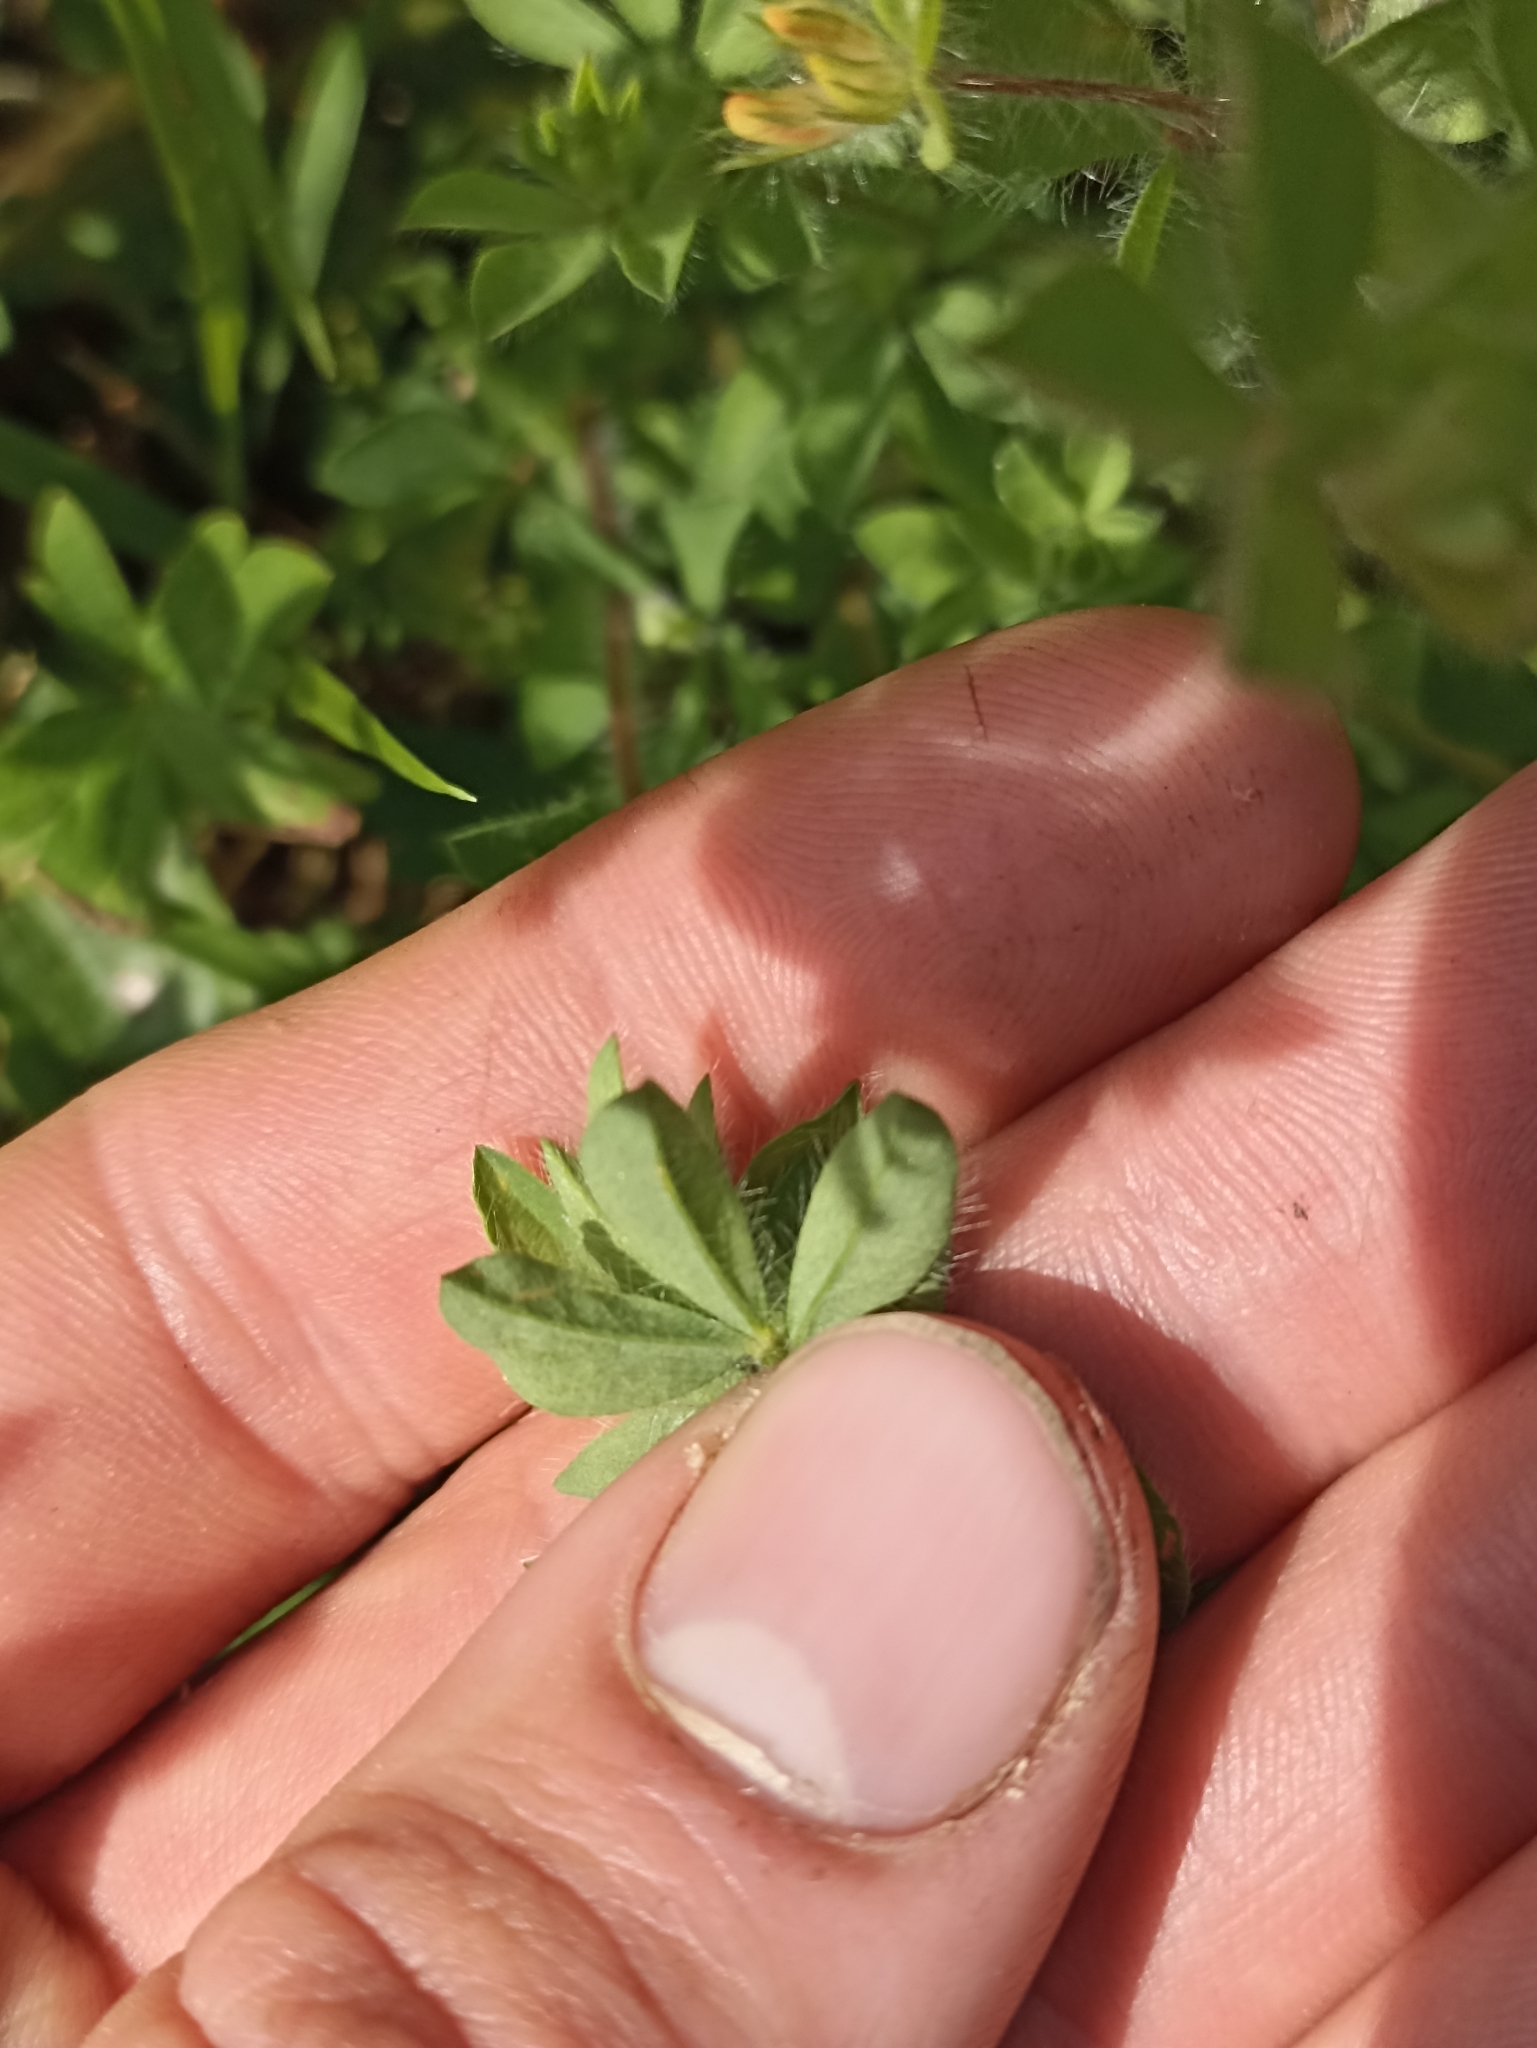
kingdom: Plantae
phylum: Tracheophyta
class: Magnoliopsida
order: Fabales
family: Fabaceae
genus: Lotus
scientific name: Lotus subbiflorus
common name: Hairy bird's-foot trefoil
